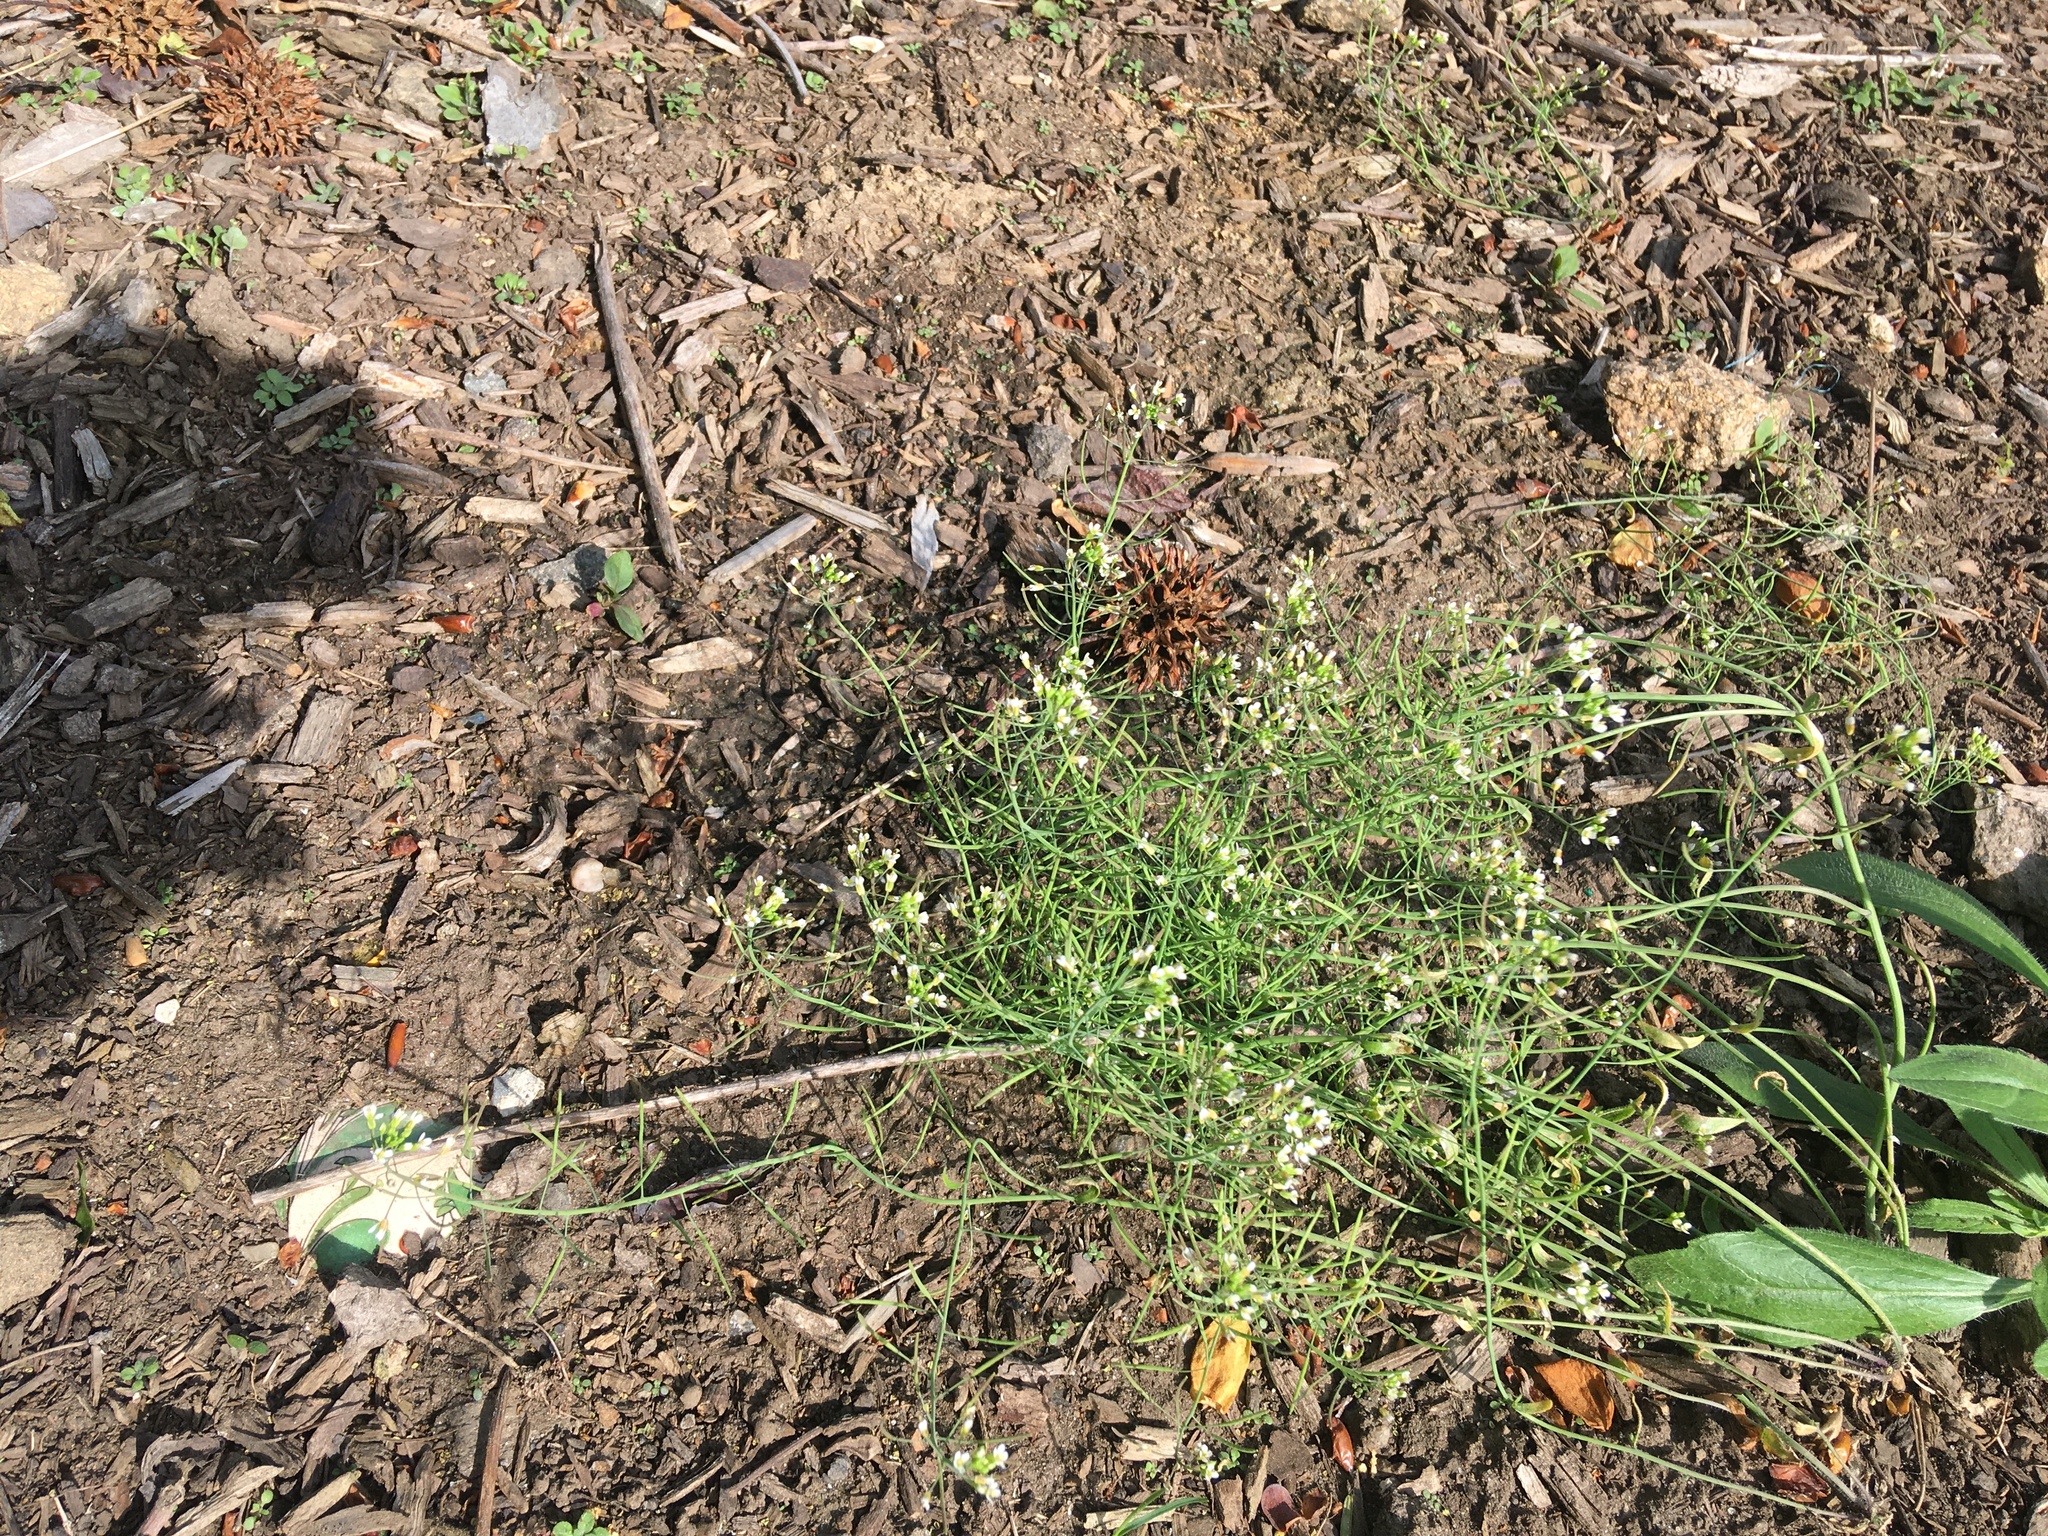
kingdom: Plantae
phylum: Tracheophyta
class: Magnoliopsida
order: Brassicales
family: Brassicaceae
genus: Arabidopsis
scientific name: Arabidopsis thaliana
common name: Thale cress
